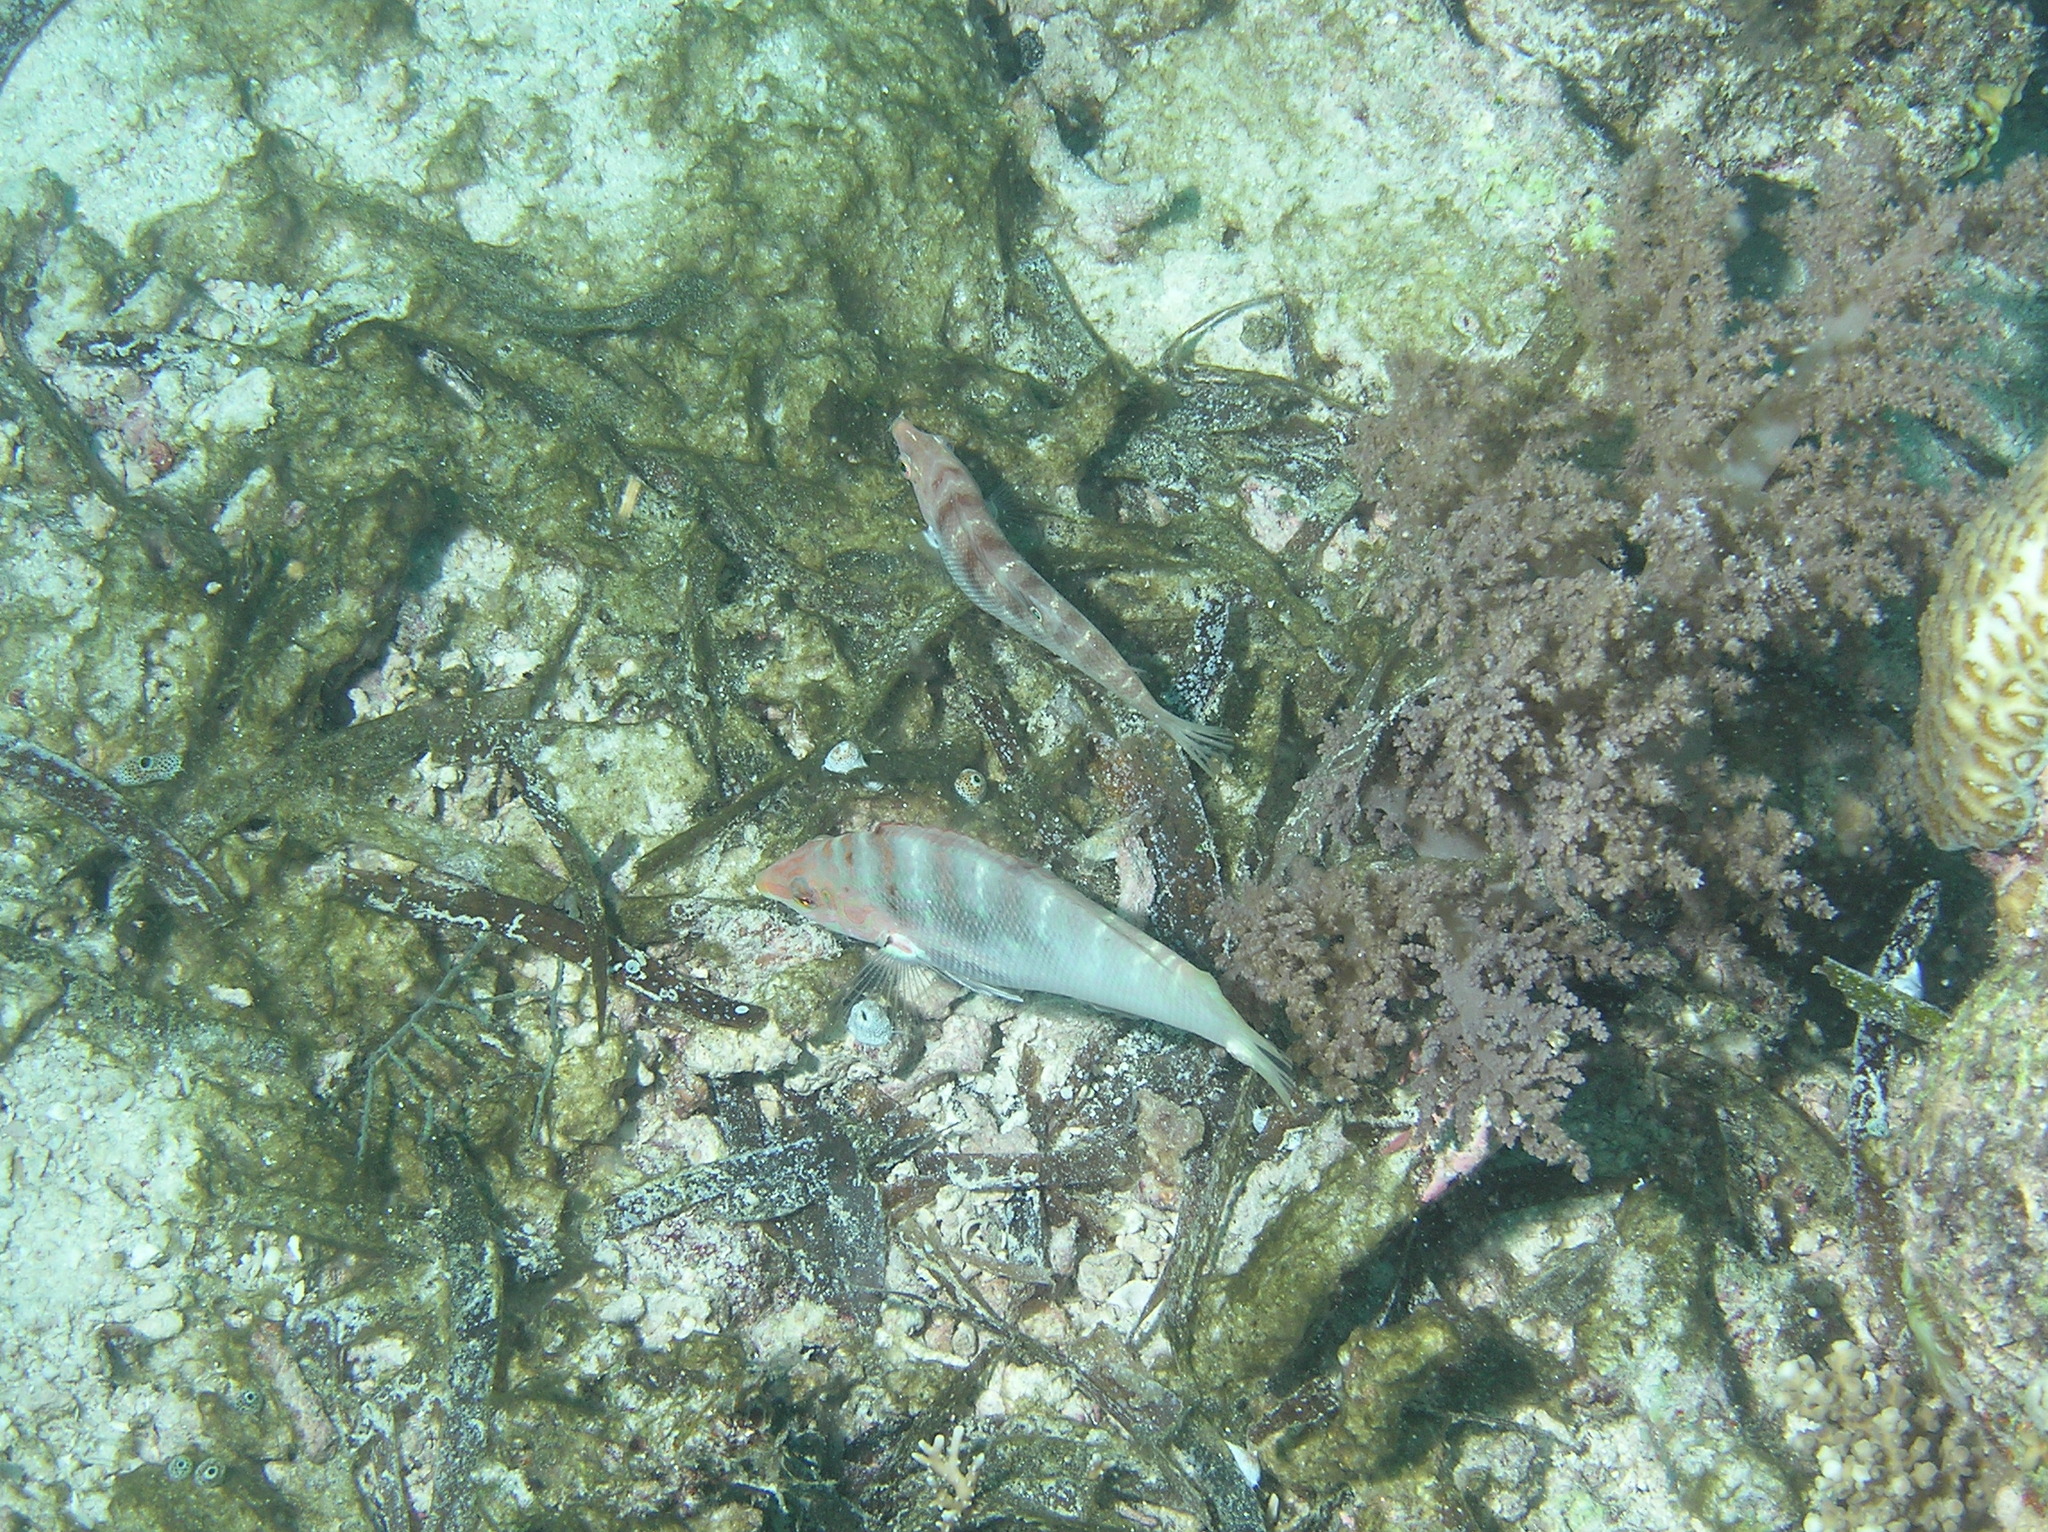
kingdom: Animalia
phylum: Chordata
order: Perciformes
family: Labridae
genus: Coris
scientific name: Coris batuensis
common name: Batu coris
